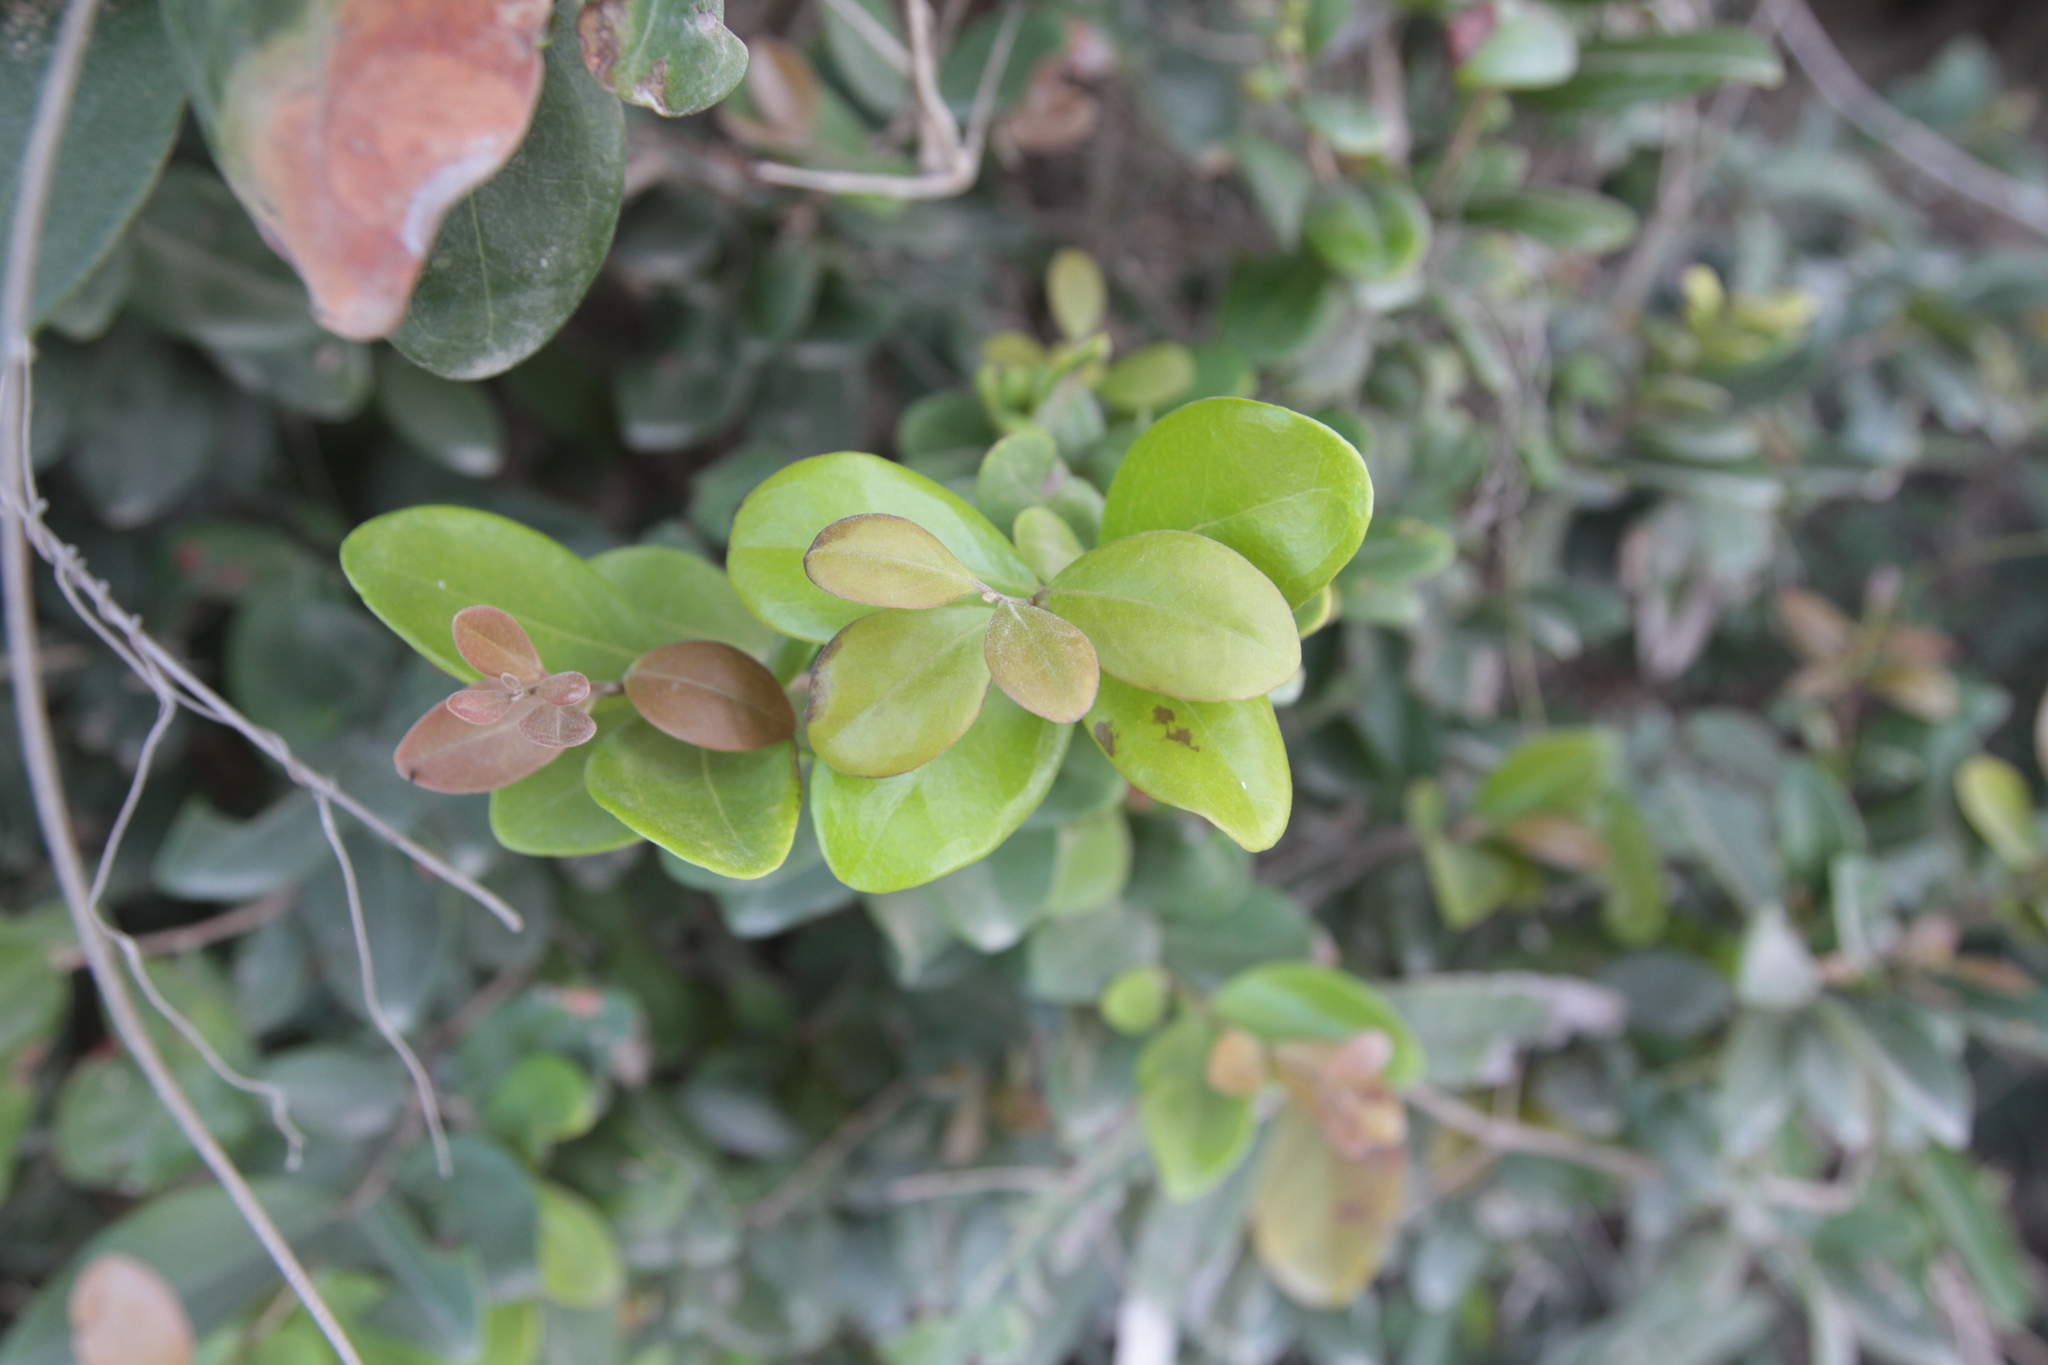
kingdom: Plantae
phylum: Tracheophyta
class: Magnoliopsida
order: Myrtales
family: Myrtaceae
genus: Myrcianthes
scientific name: Myrcianthes fragrans
